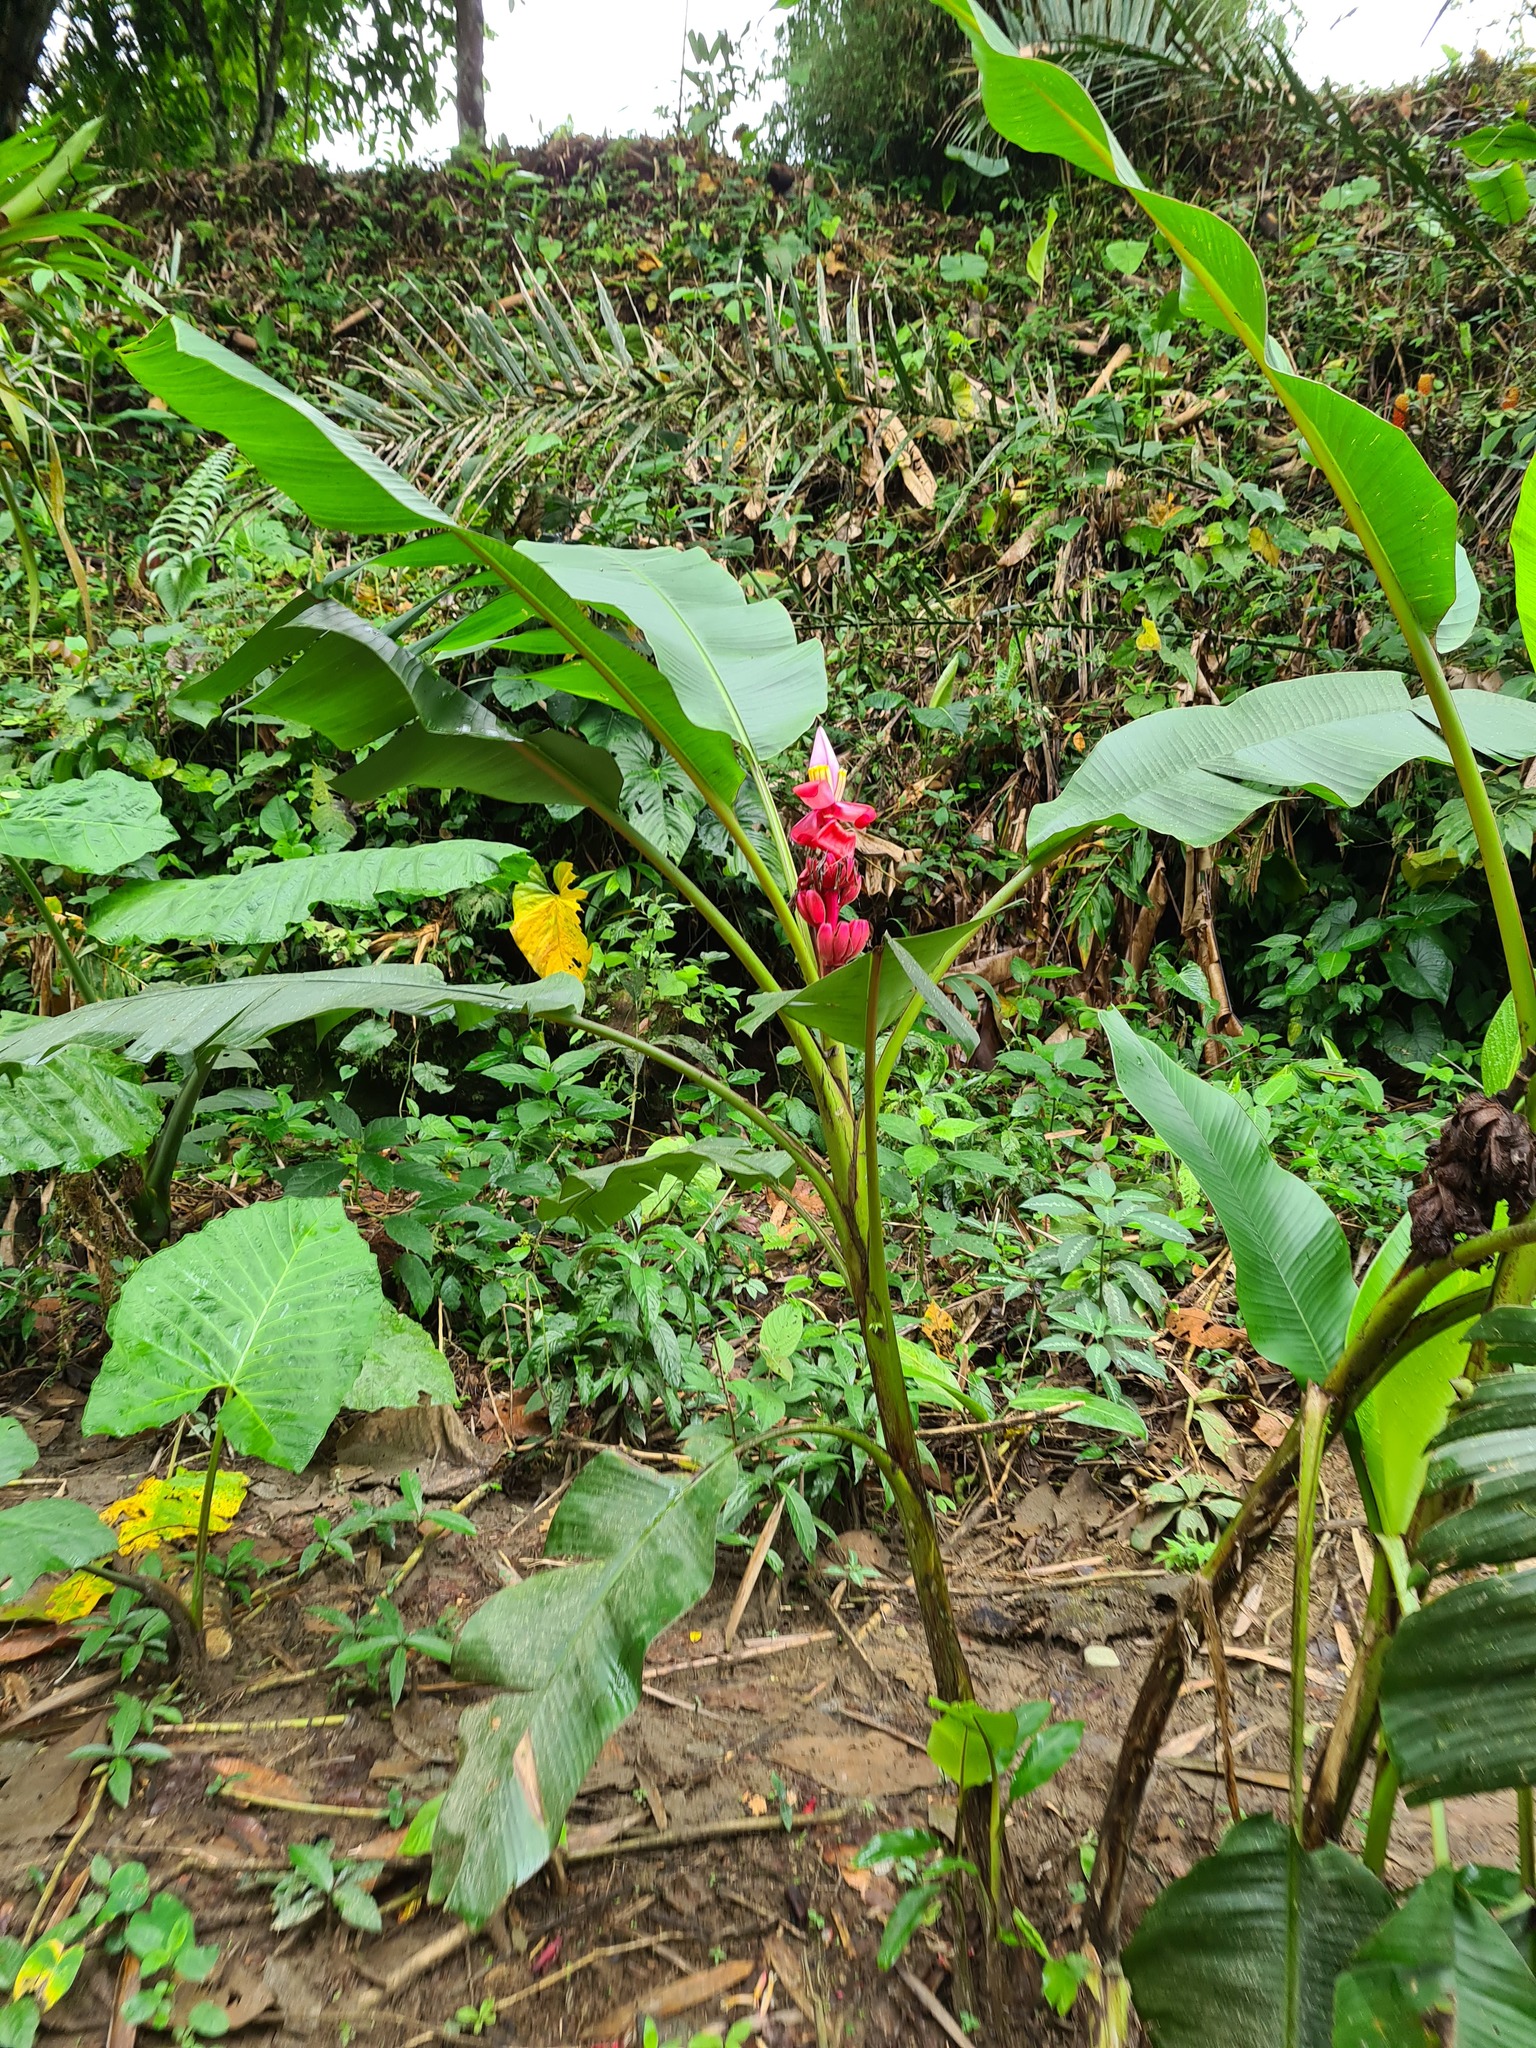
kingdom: Plantae
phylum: Tracheophyta
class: Liliopsida
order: Zingiberales
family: Musaceae
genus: Musa
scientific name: Musa velutina
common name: Pink velvet banana
